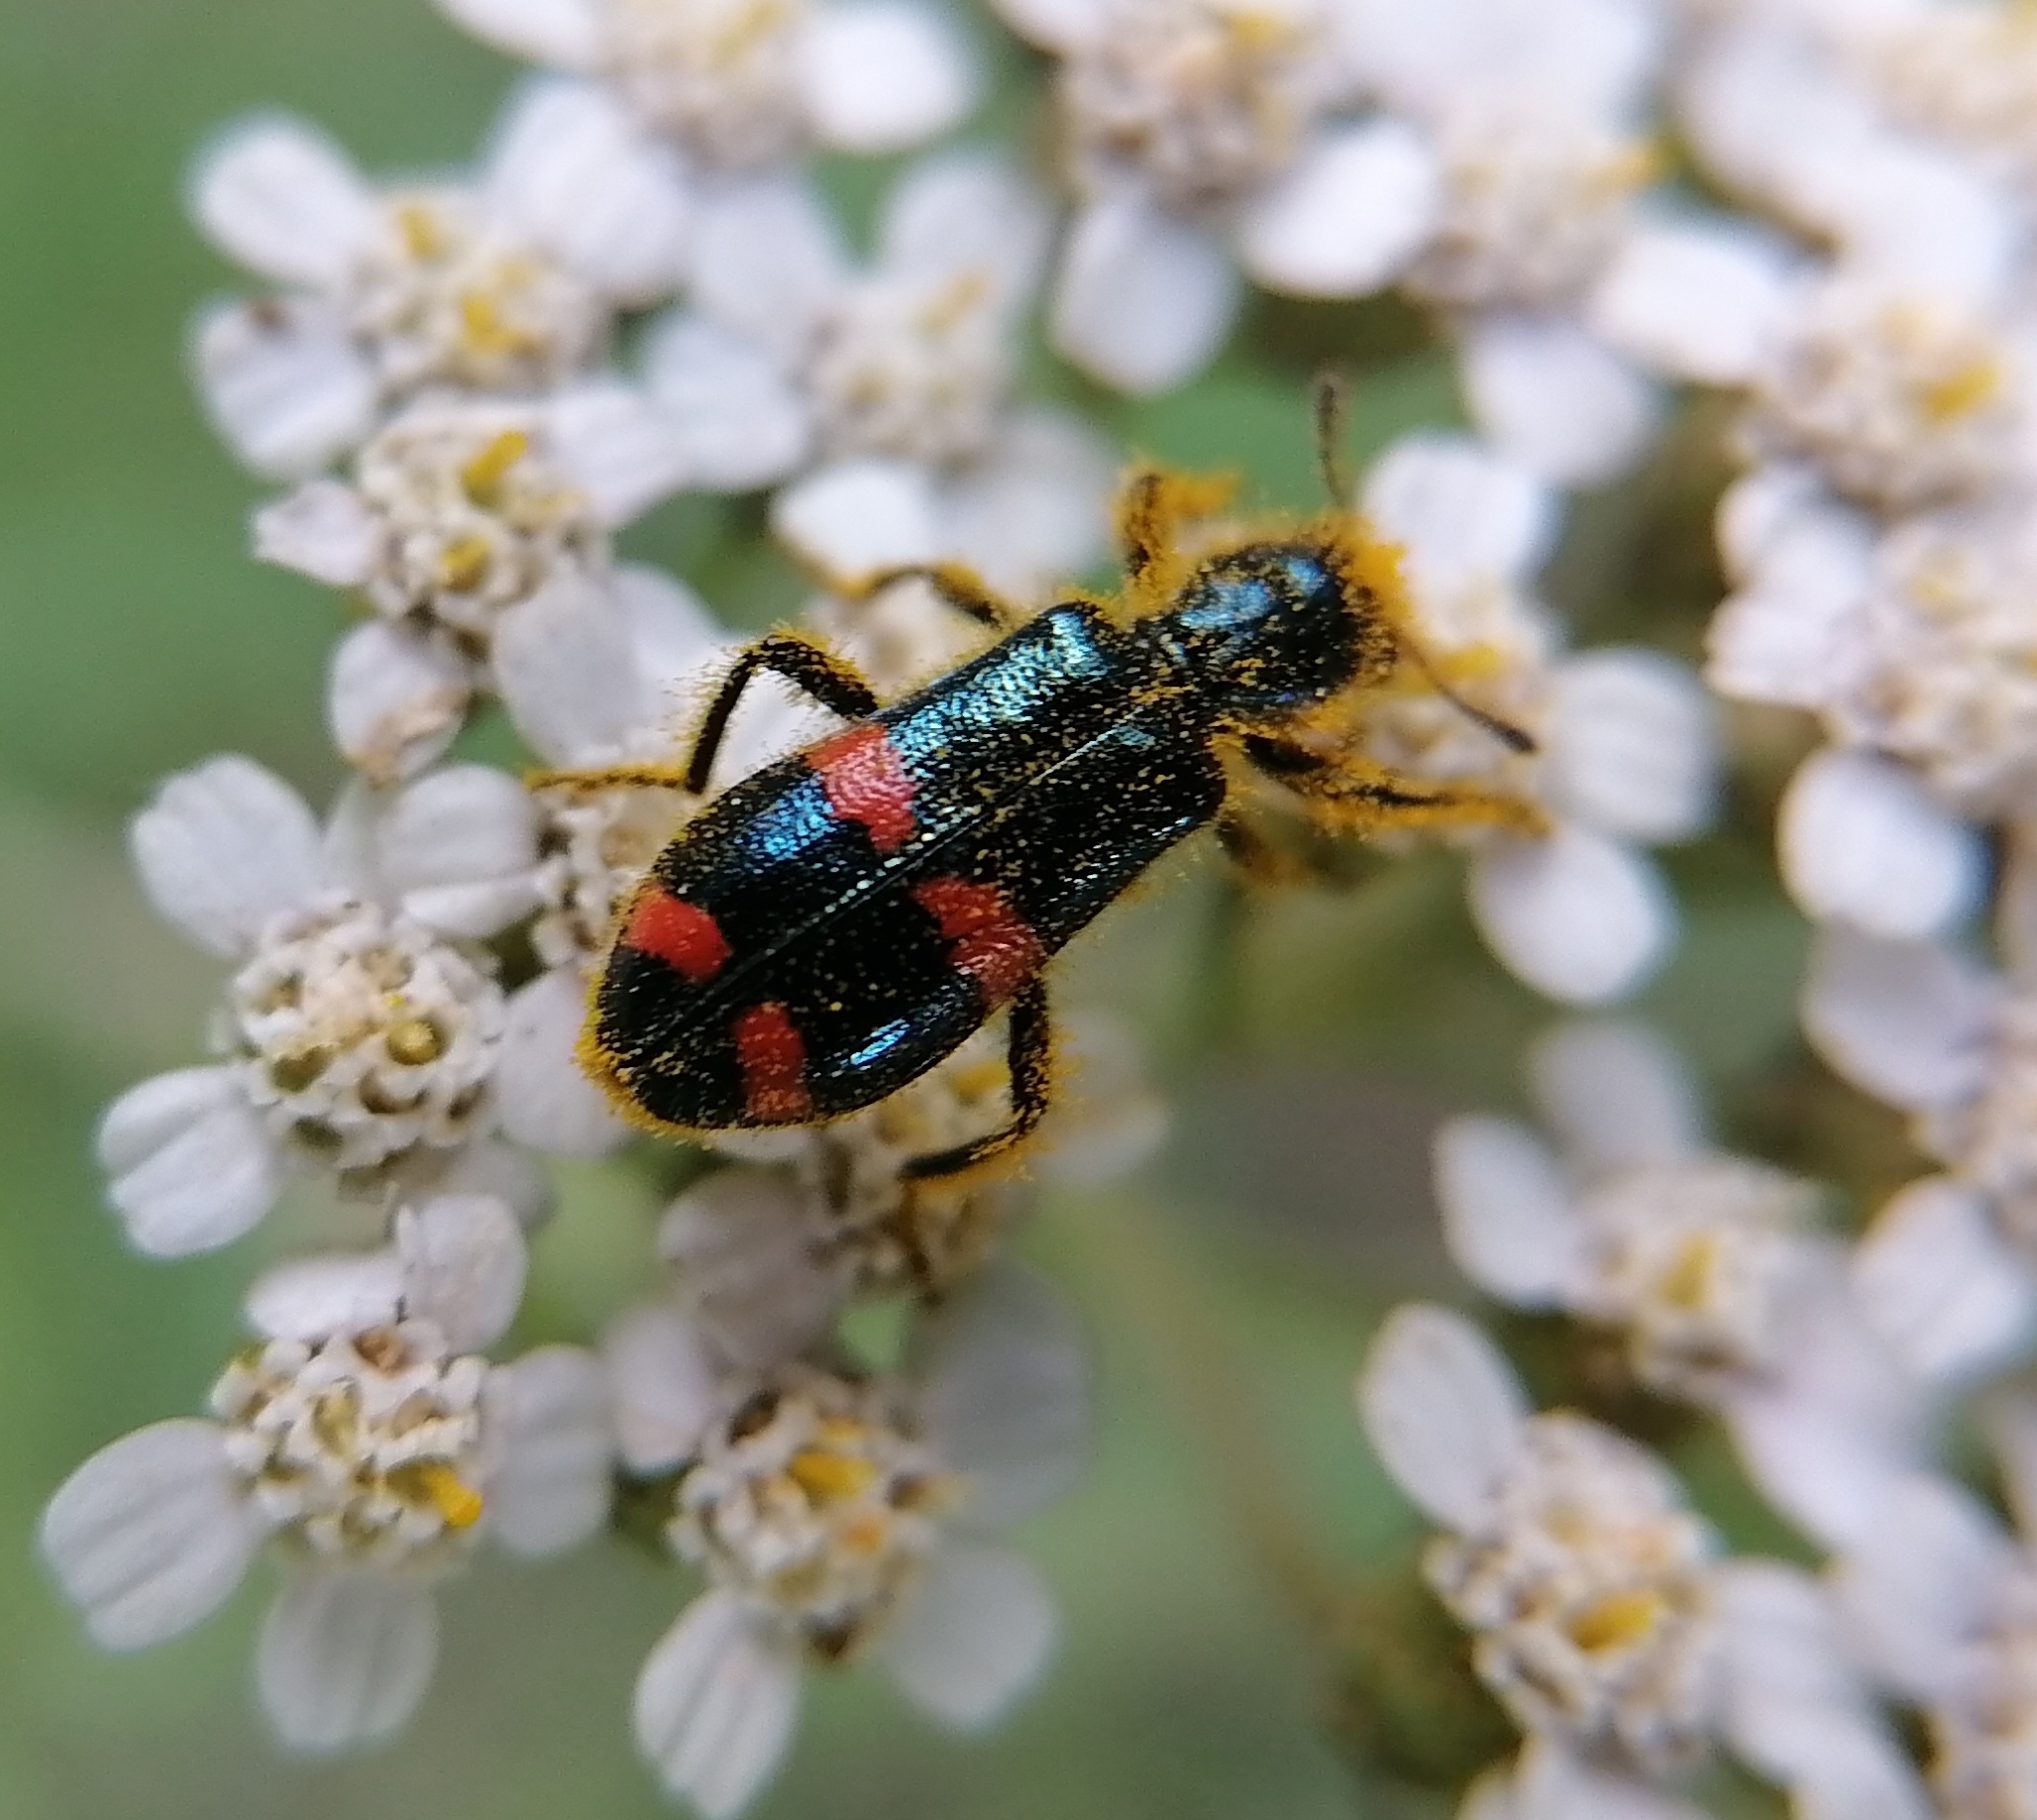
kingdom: Animalia
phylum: Arthropoda
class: Insecta
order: Coleoptera
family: Cleridae
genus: Trichodes
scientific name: Trichodes
